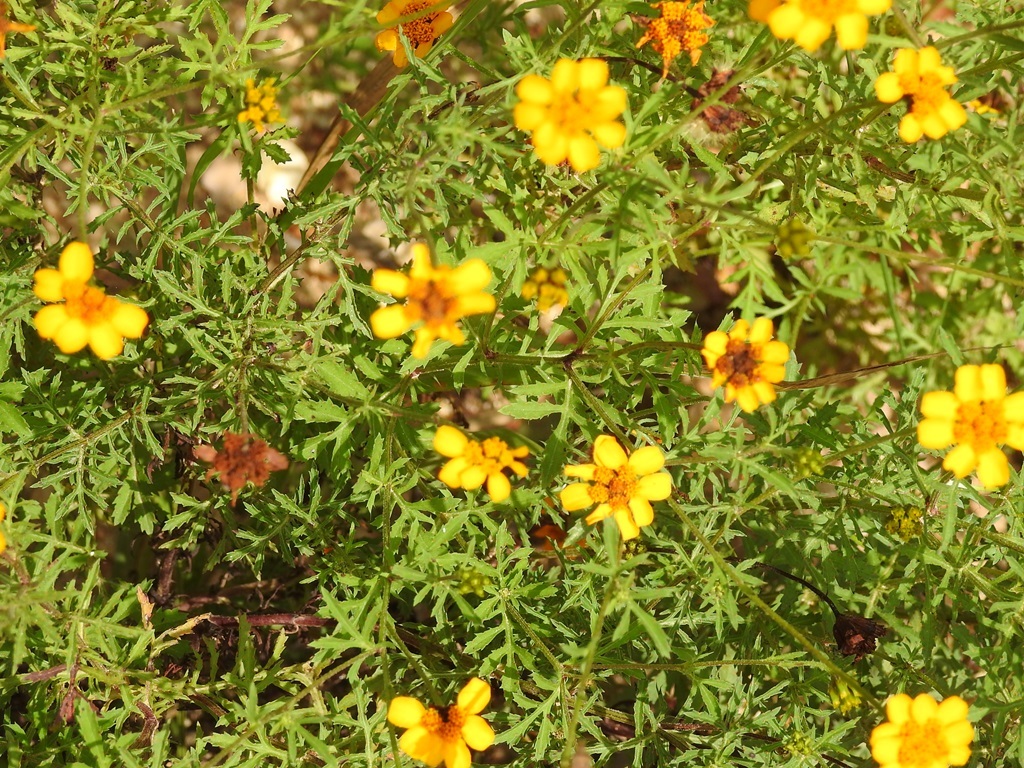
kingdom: Plantae
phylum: Tracheophyta
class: Magnoliopsida
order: Asterales
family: Asteraceae
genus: Dyssodia
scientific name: Dyssodia decipiens
